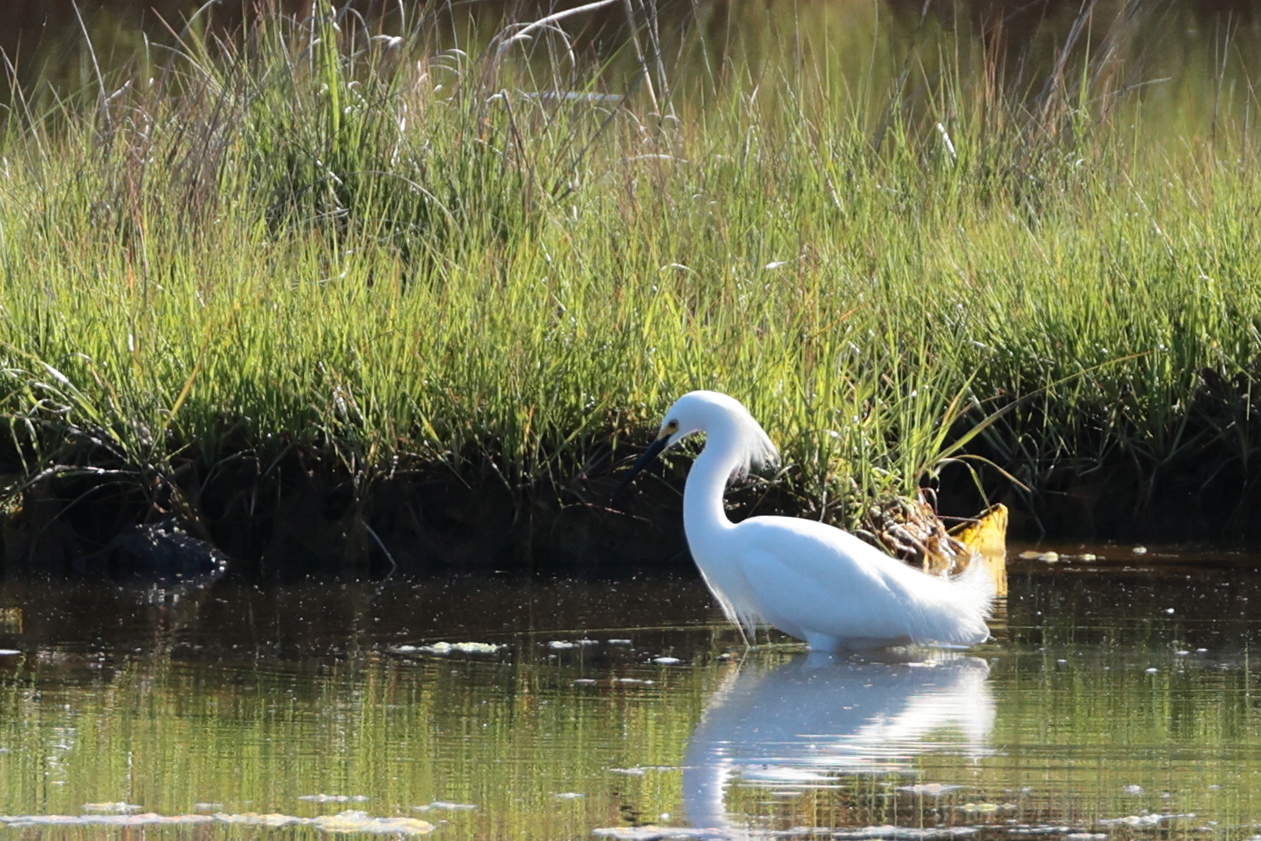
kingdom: Animalia
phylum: Chordata
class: Aves
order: Pelecaniformes
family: Ardeidae
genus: Egretta
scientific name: Egretta thula
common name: Snowy egret
